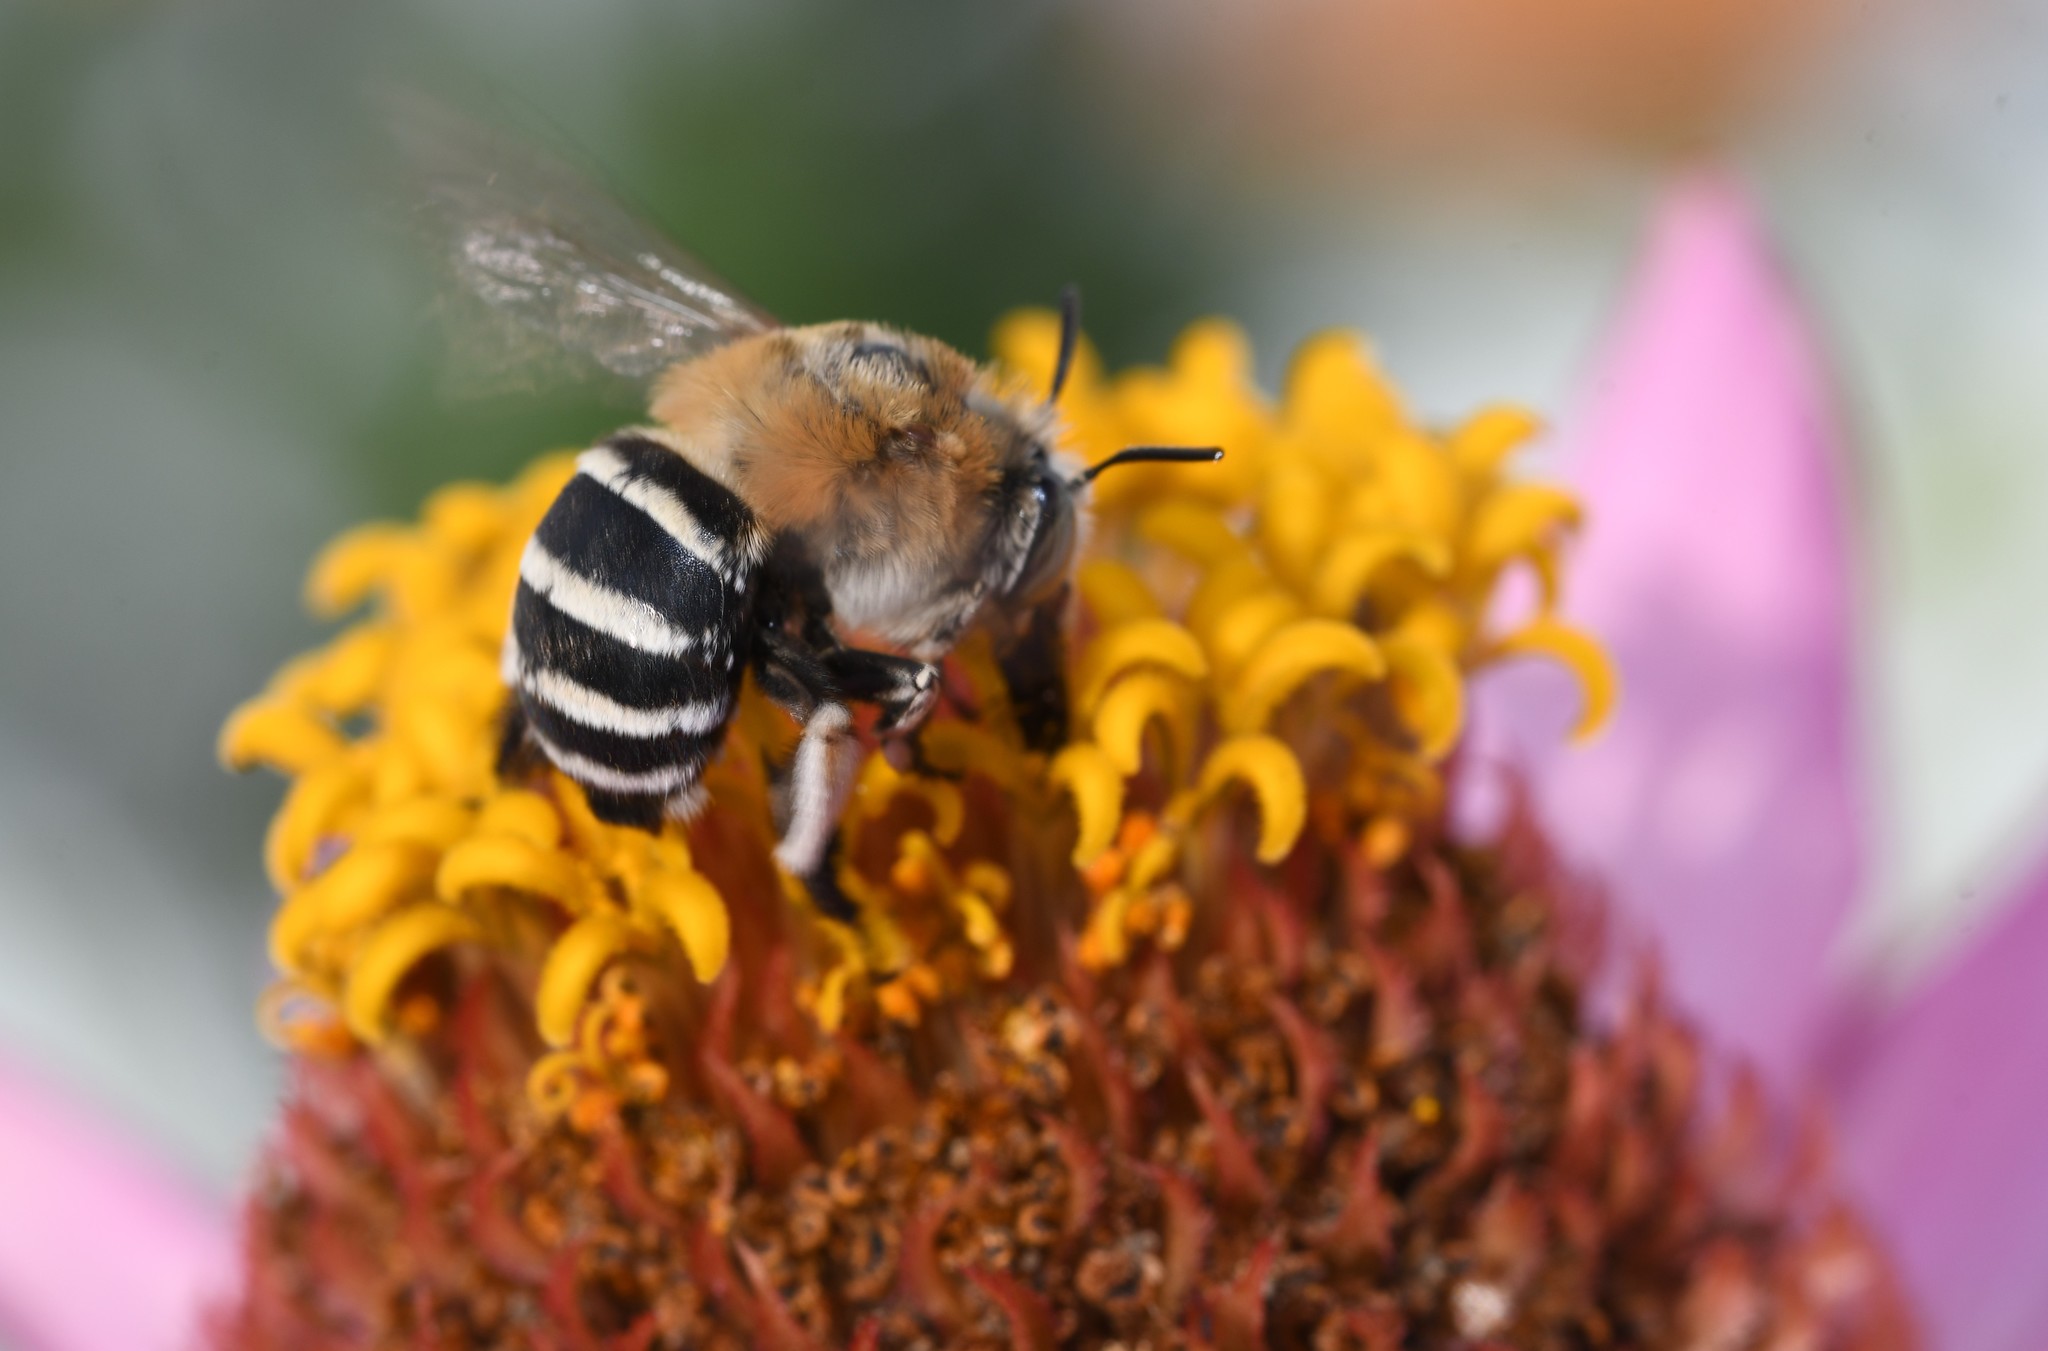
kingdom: Animalia
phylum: Arthropoda
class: Insecta
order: Hymenoptera
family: Apidae
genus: Amegilla
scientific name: Amegilla quadrifasciata
